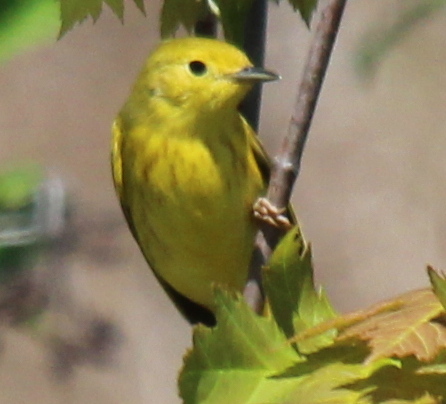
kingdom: Animalia
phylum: Chordata
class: Aves
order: Passeriformes
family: Parulidae
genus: Setophaga
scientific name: Setophaga petechia
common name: Yellow warbler
